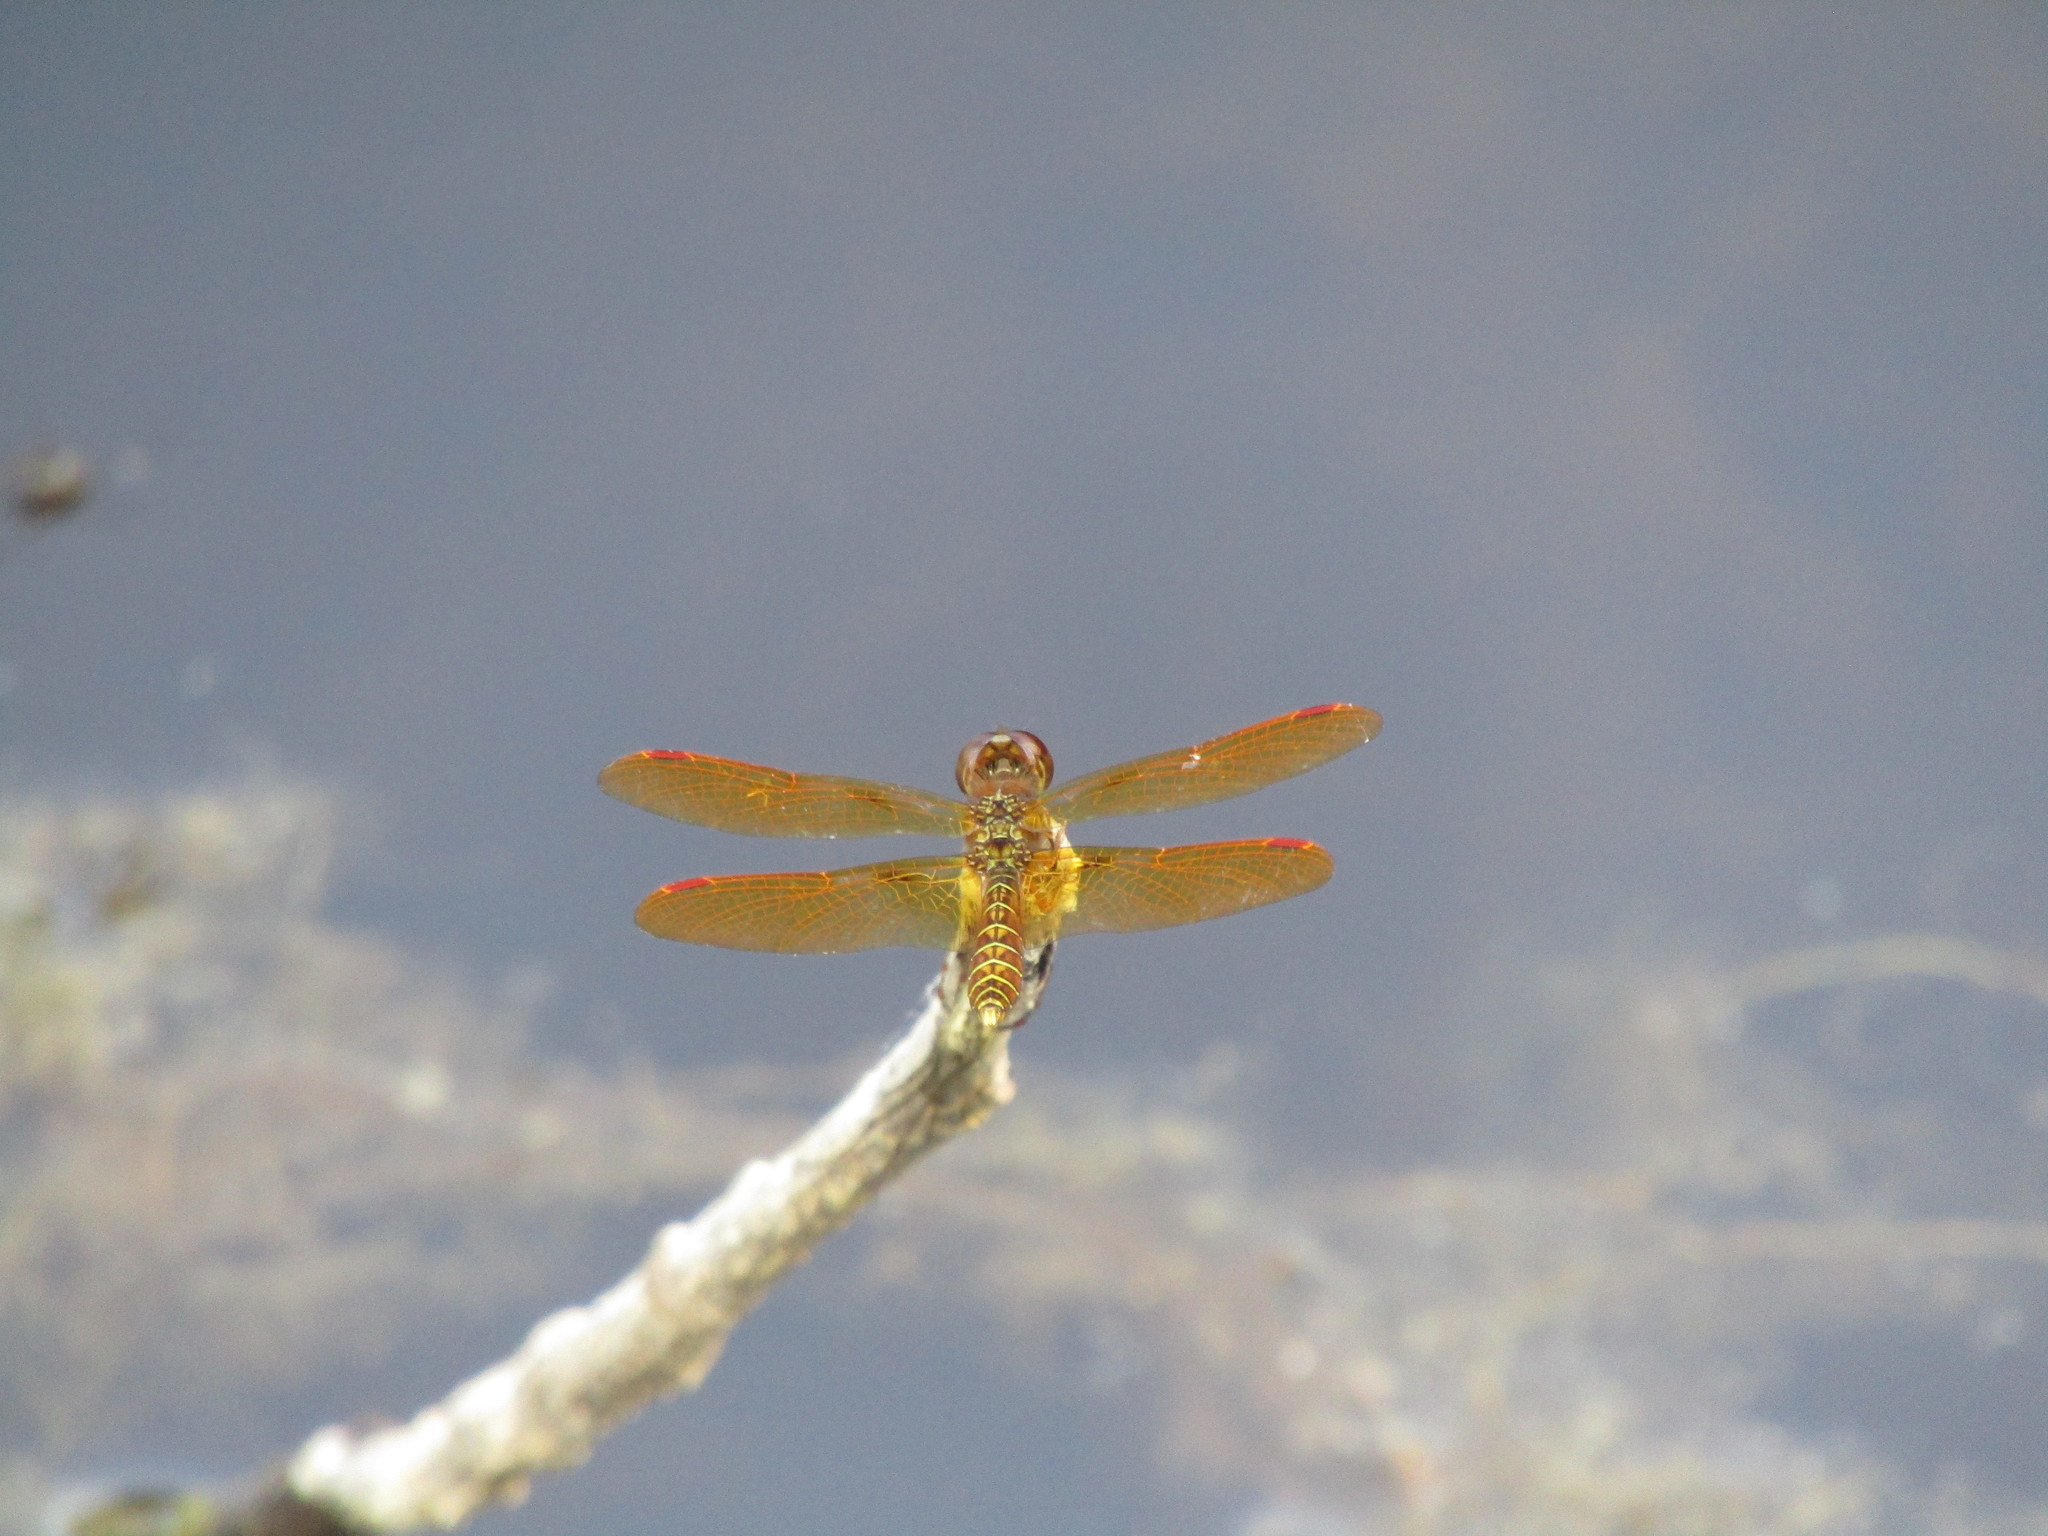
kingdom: Animalia
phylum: Arthropoda
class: Insecta
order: Odonata
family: Libellulidae
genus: Perithemis
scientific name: Perithemis tenera
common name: Eastern amberwing
